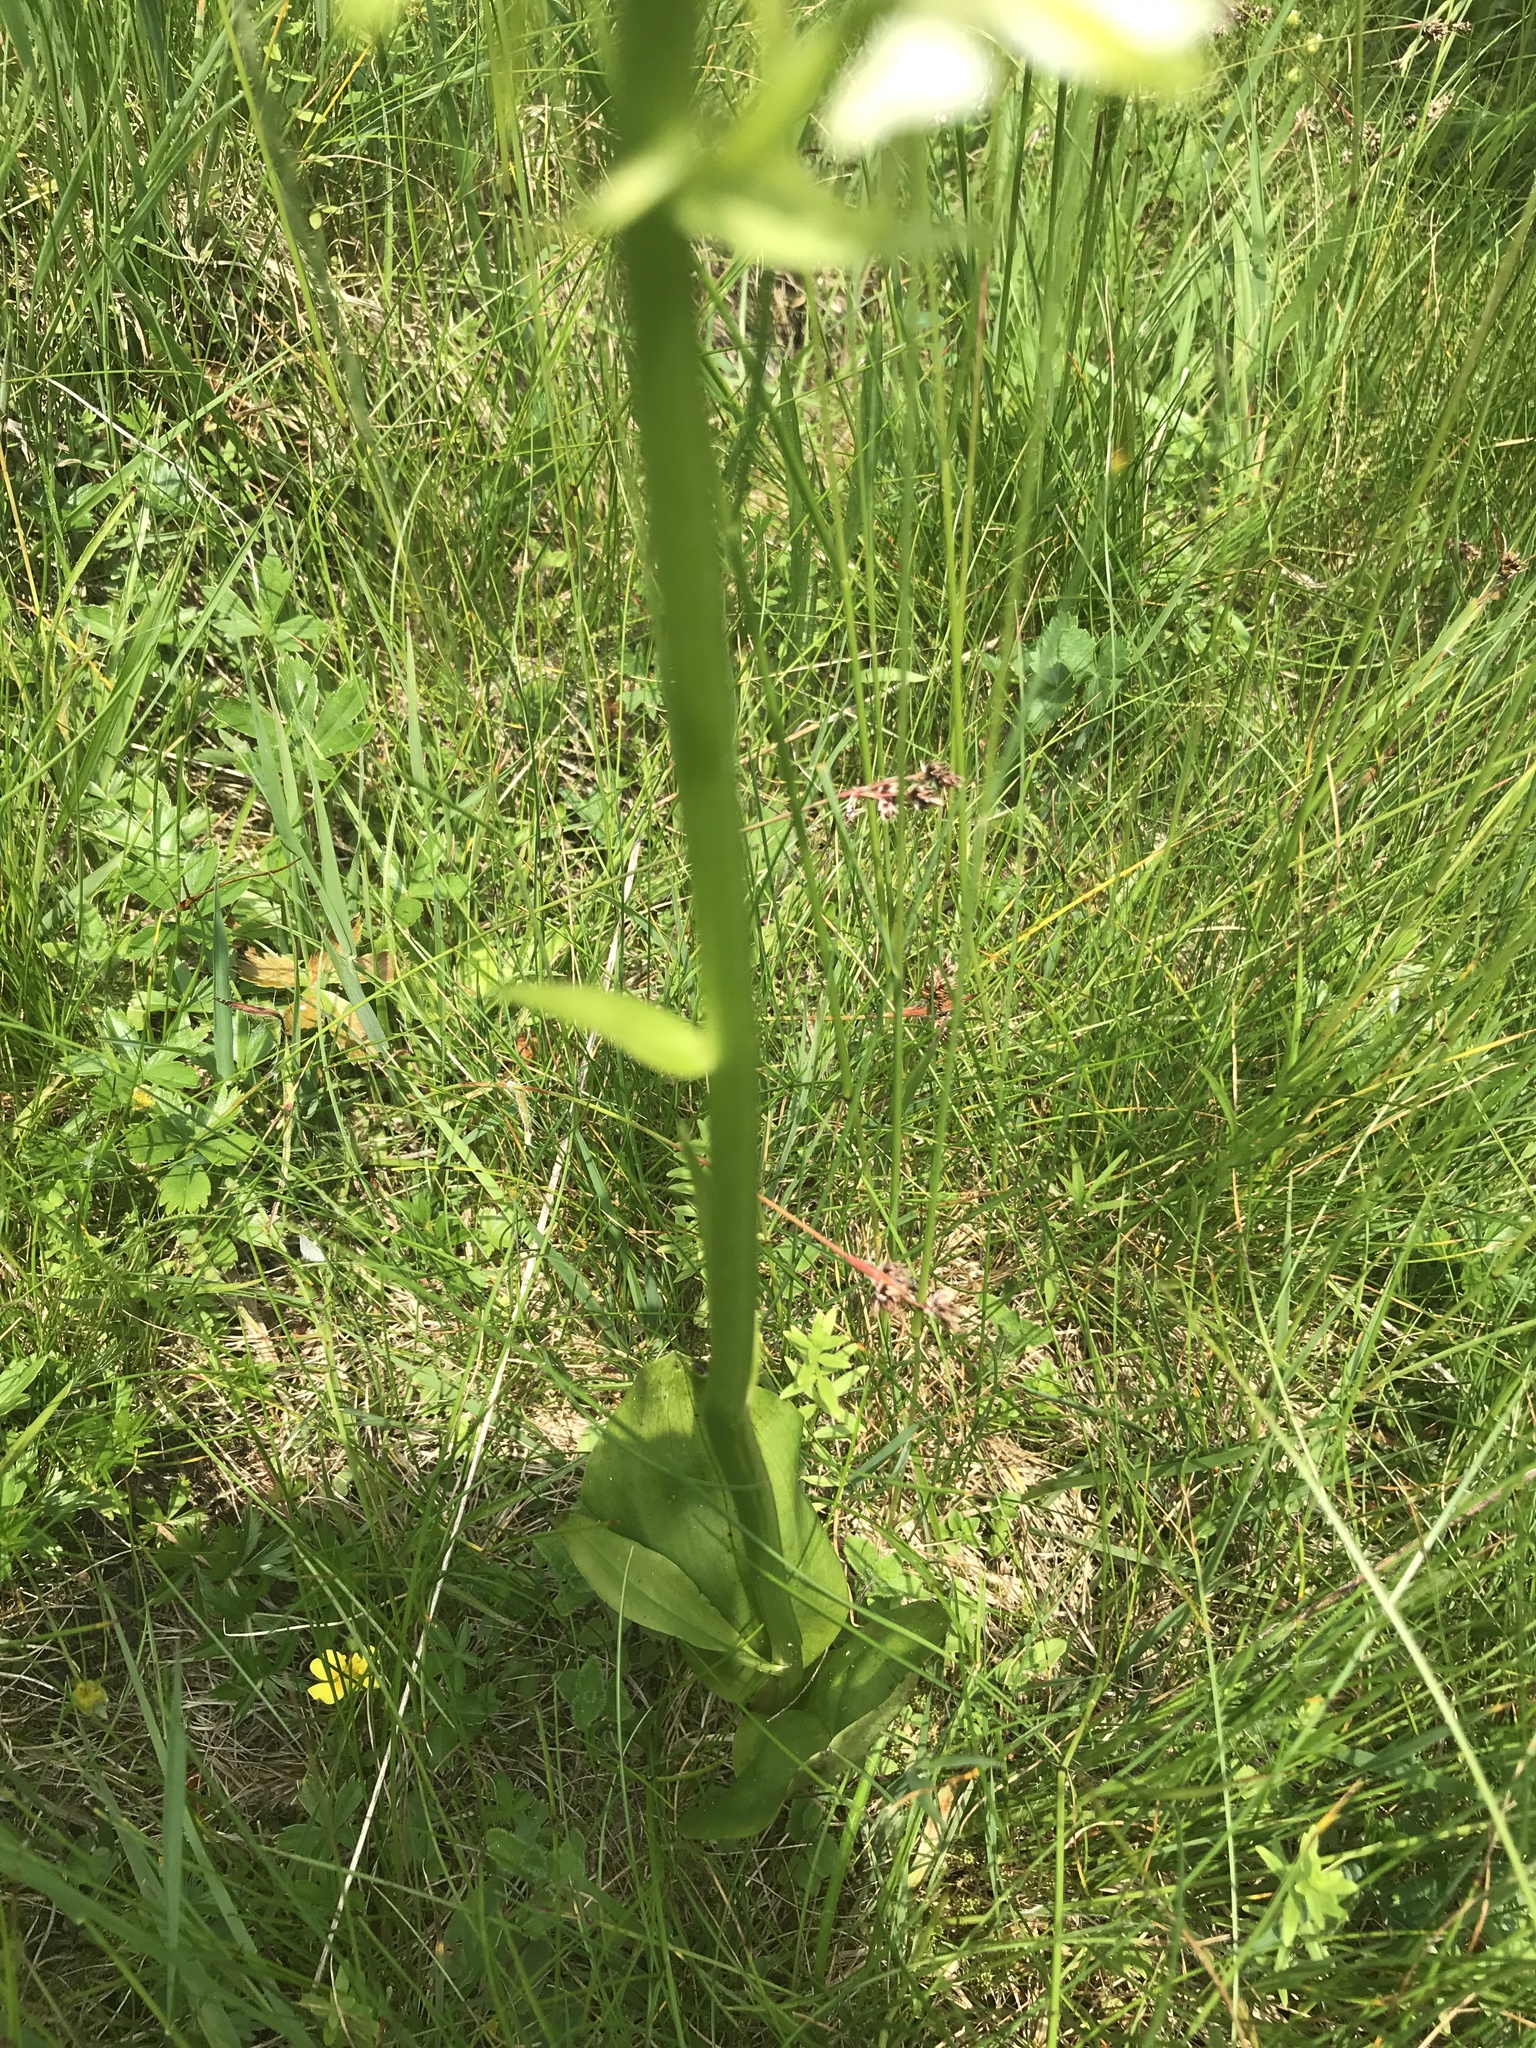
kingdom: Plantae
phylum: Tracheophyta
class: Liliopsida
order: Asparagales
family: Orchidaceae
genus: Platanthera
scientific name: Platanthera bifolia
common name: Lesser butterfly-orchid
